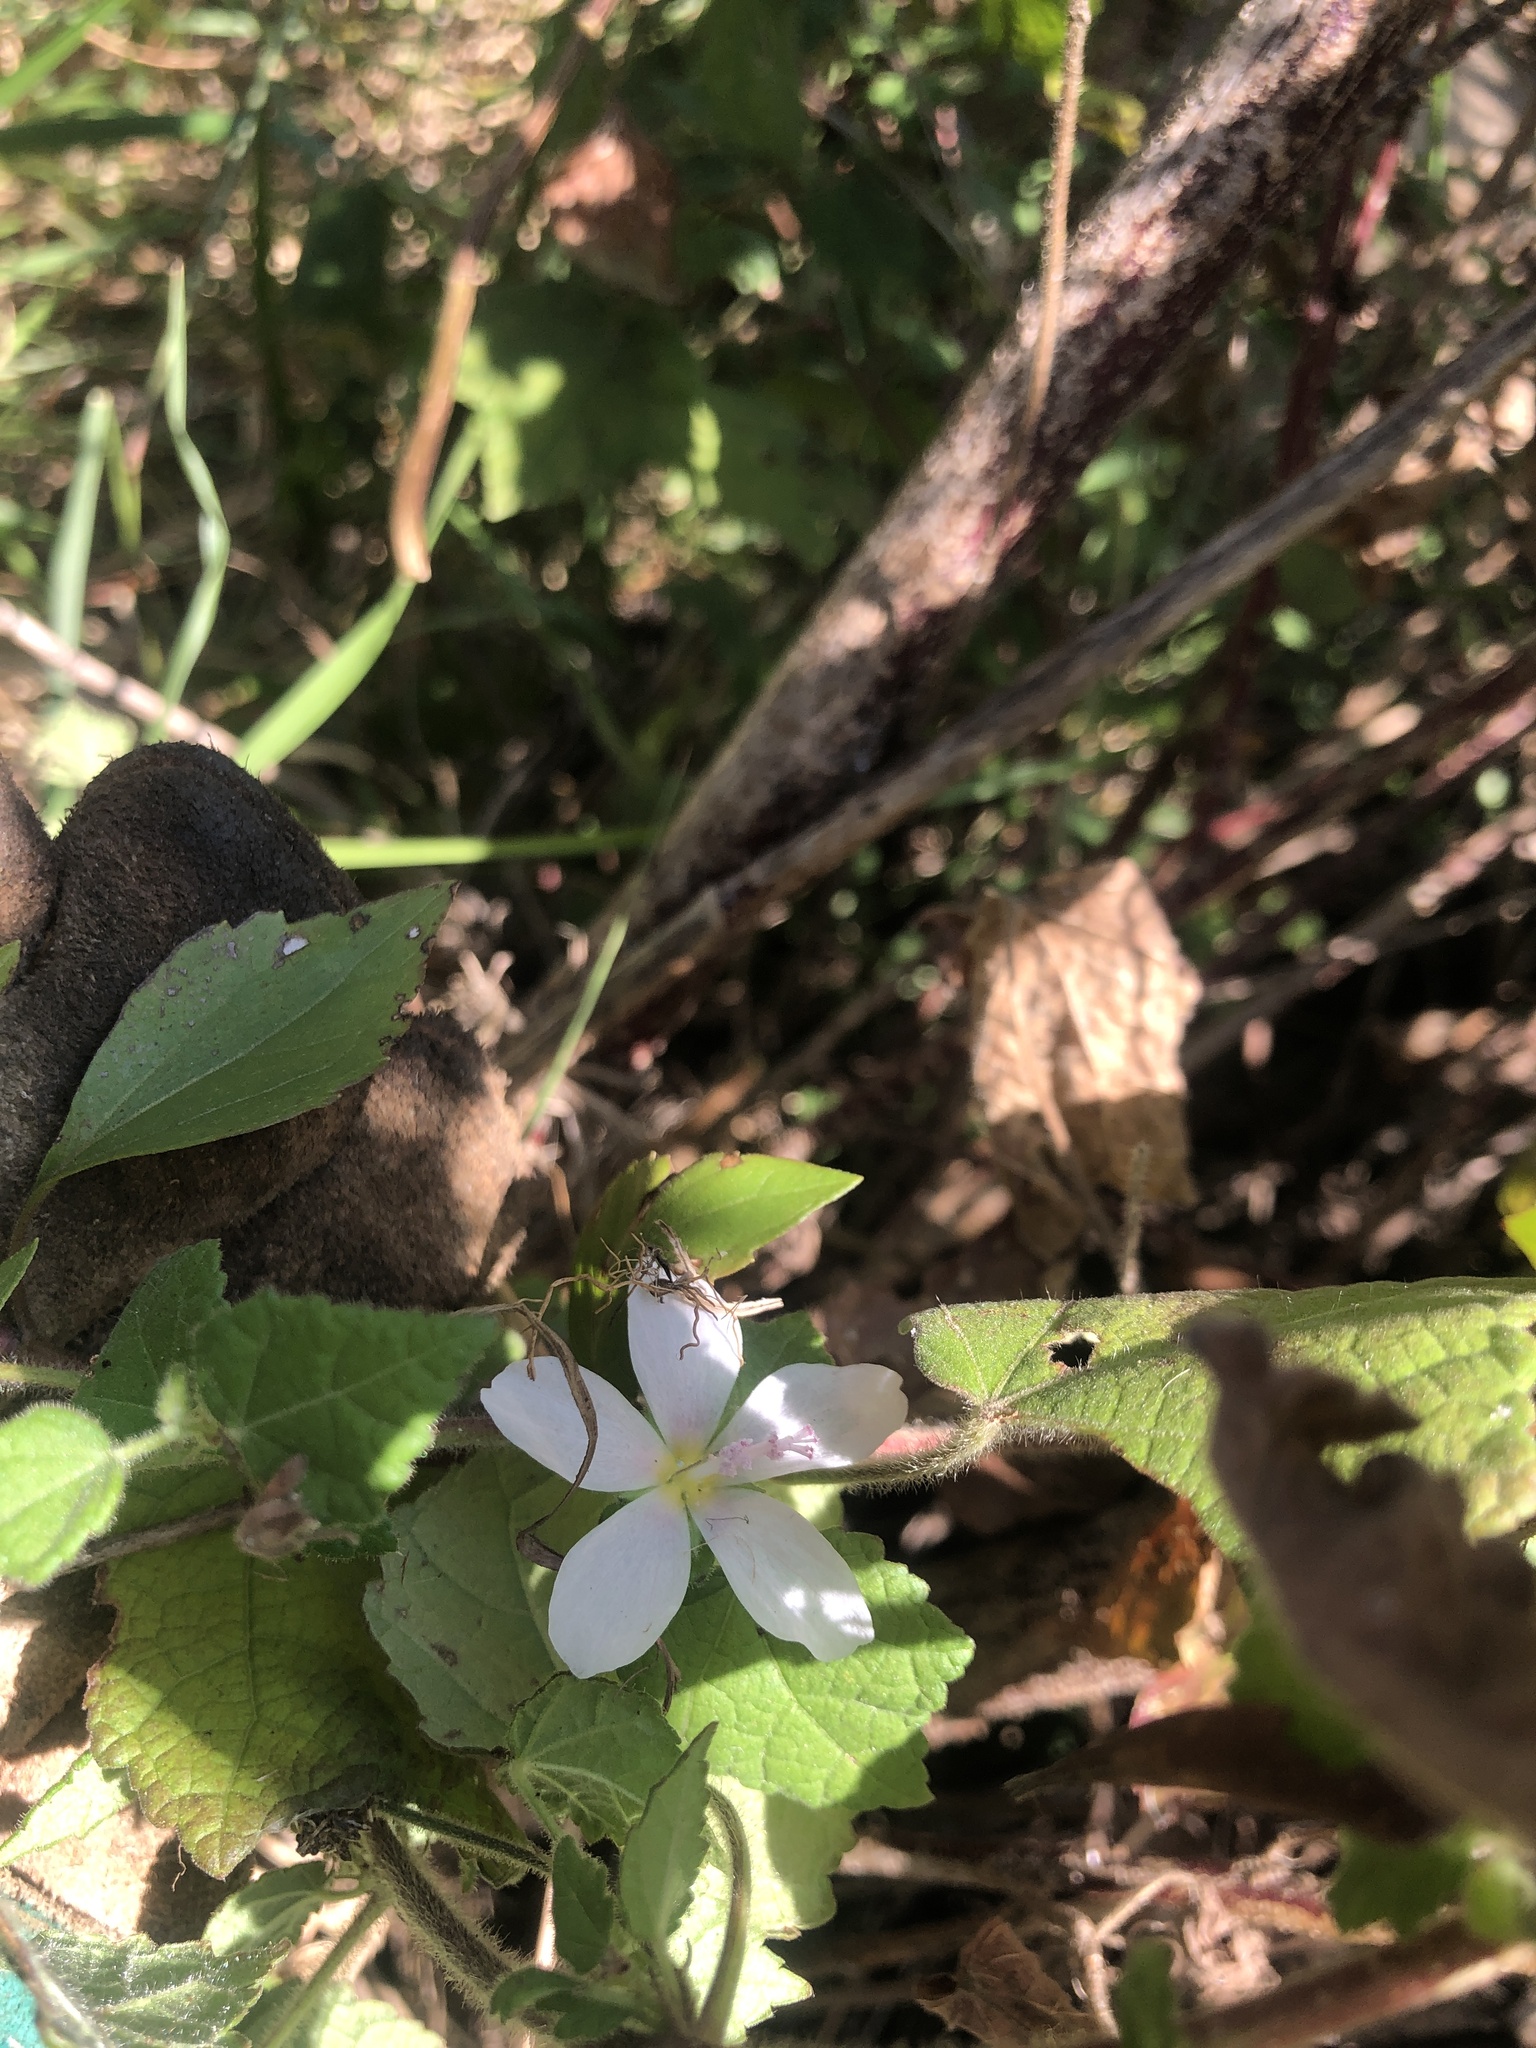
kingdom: Plantae
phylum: Tracheophyta
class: Magnoliopsida
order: Malvales
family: Malvaceae
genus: Pavonia
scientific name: Pavonia columella
